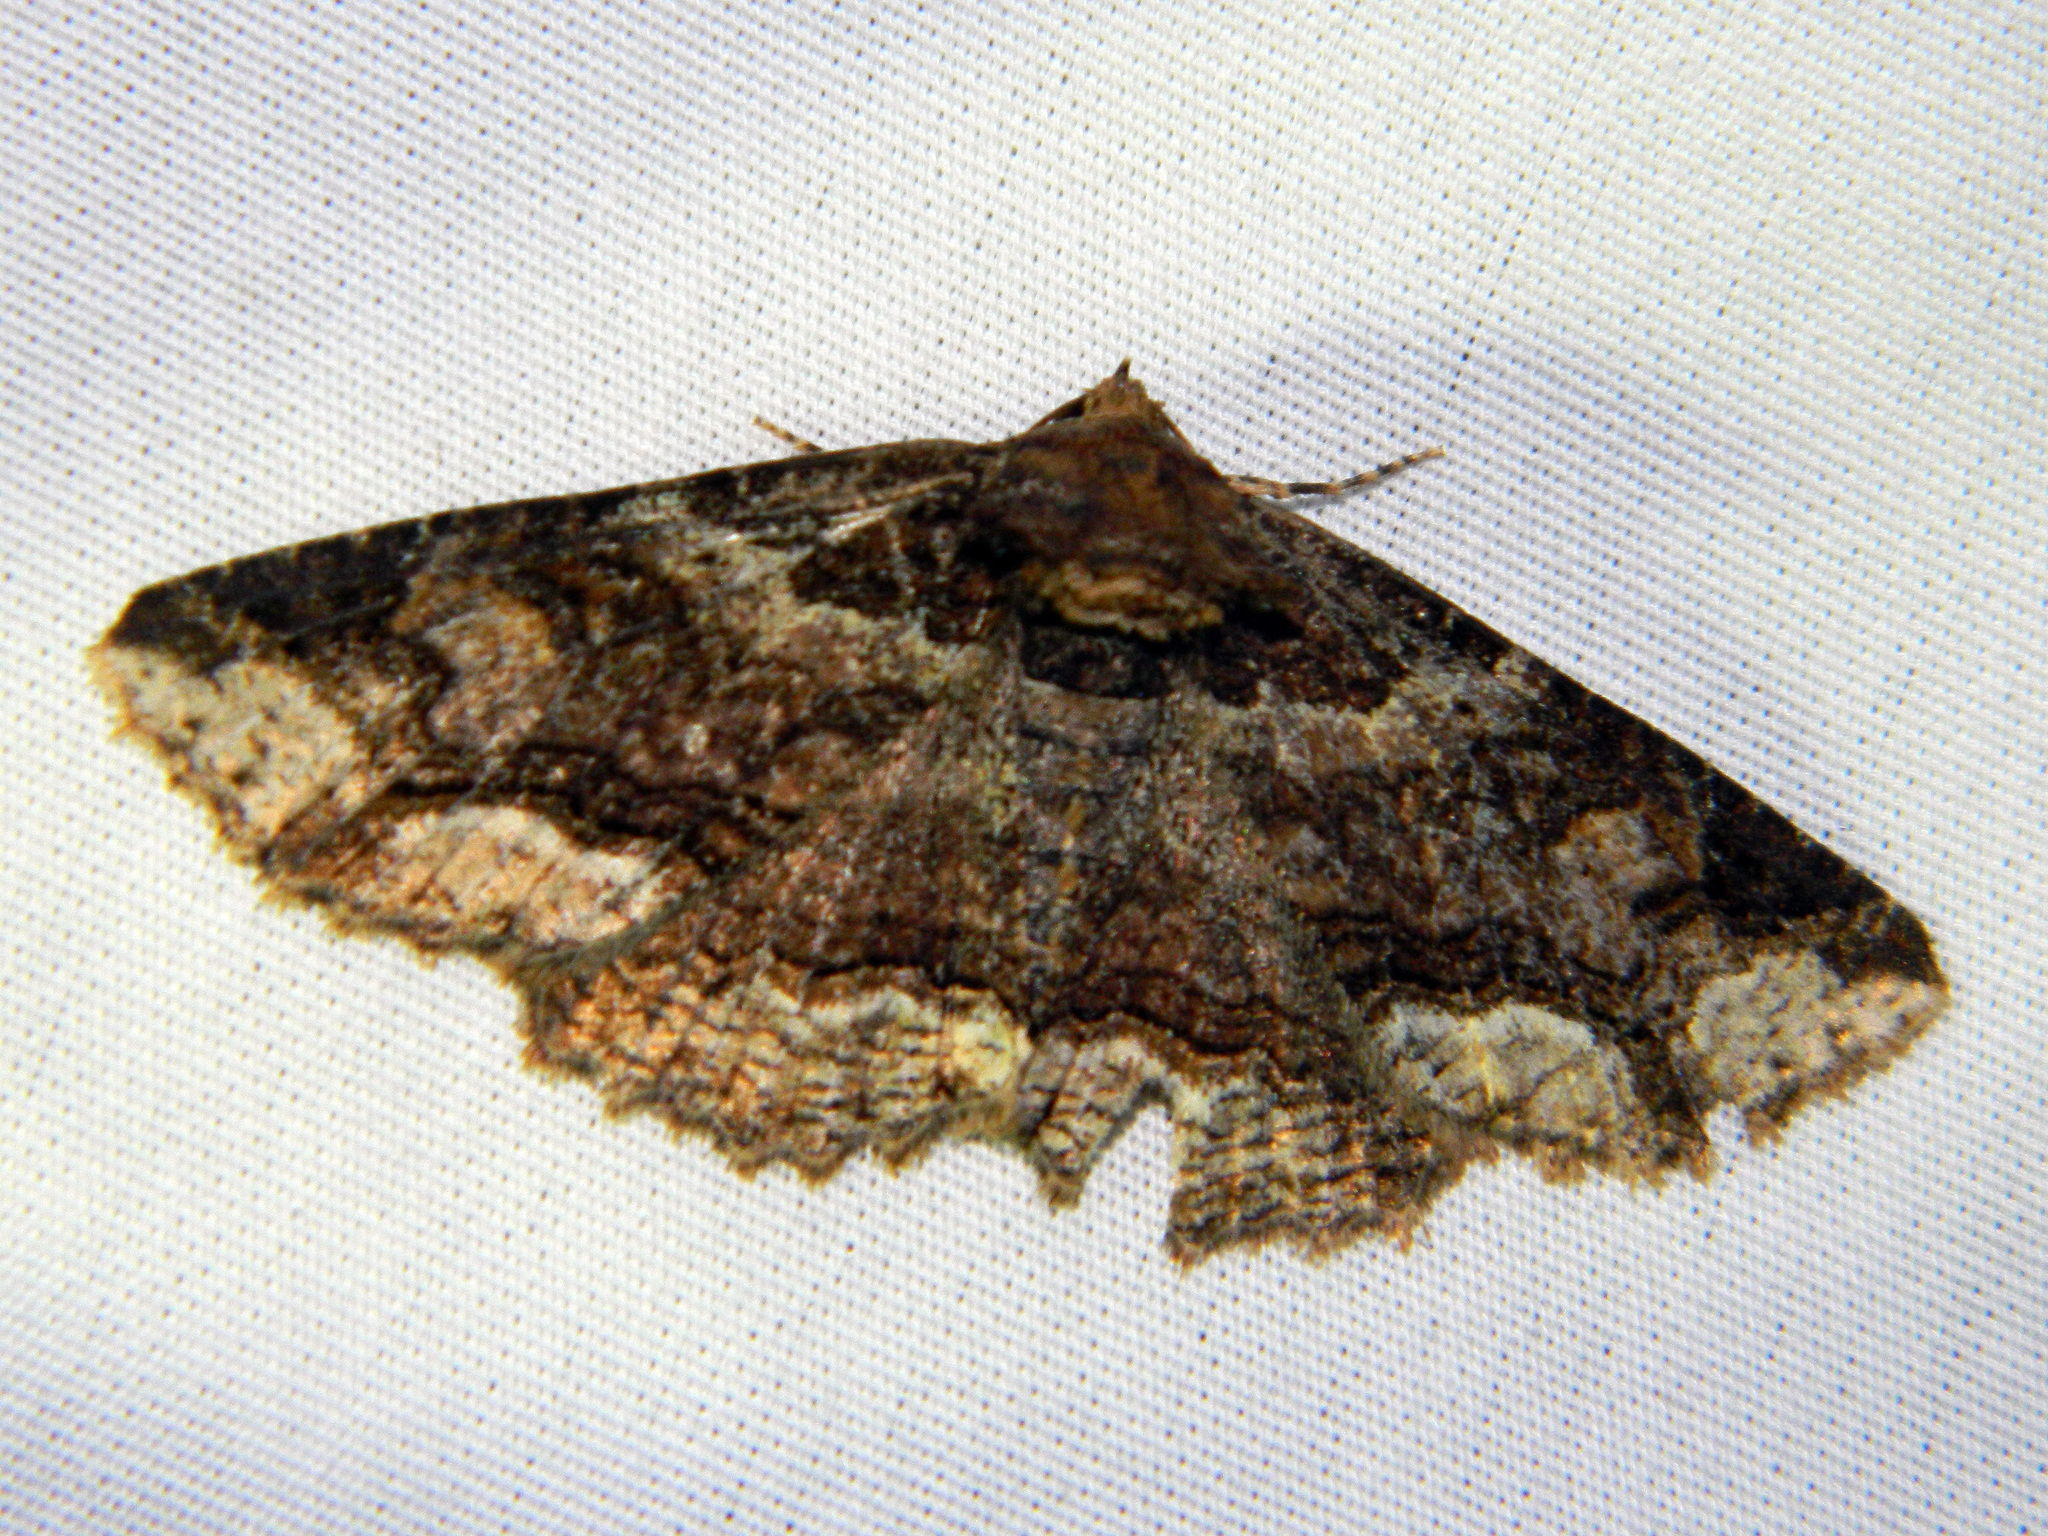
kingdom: Animalia
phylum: Arthropoda
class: Insecta
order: Lepidoptera
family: Erebidae
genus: Zale
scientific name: Zale minerea
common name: Colorful zale moth
